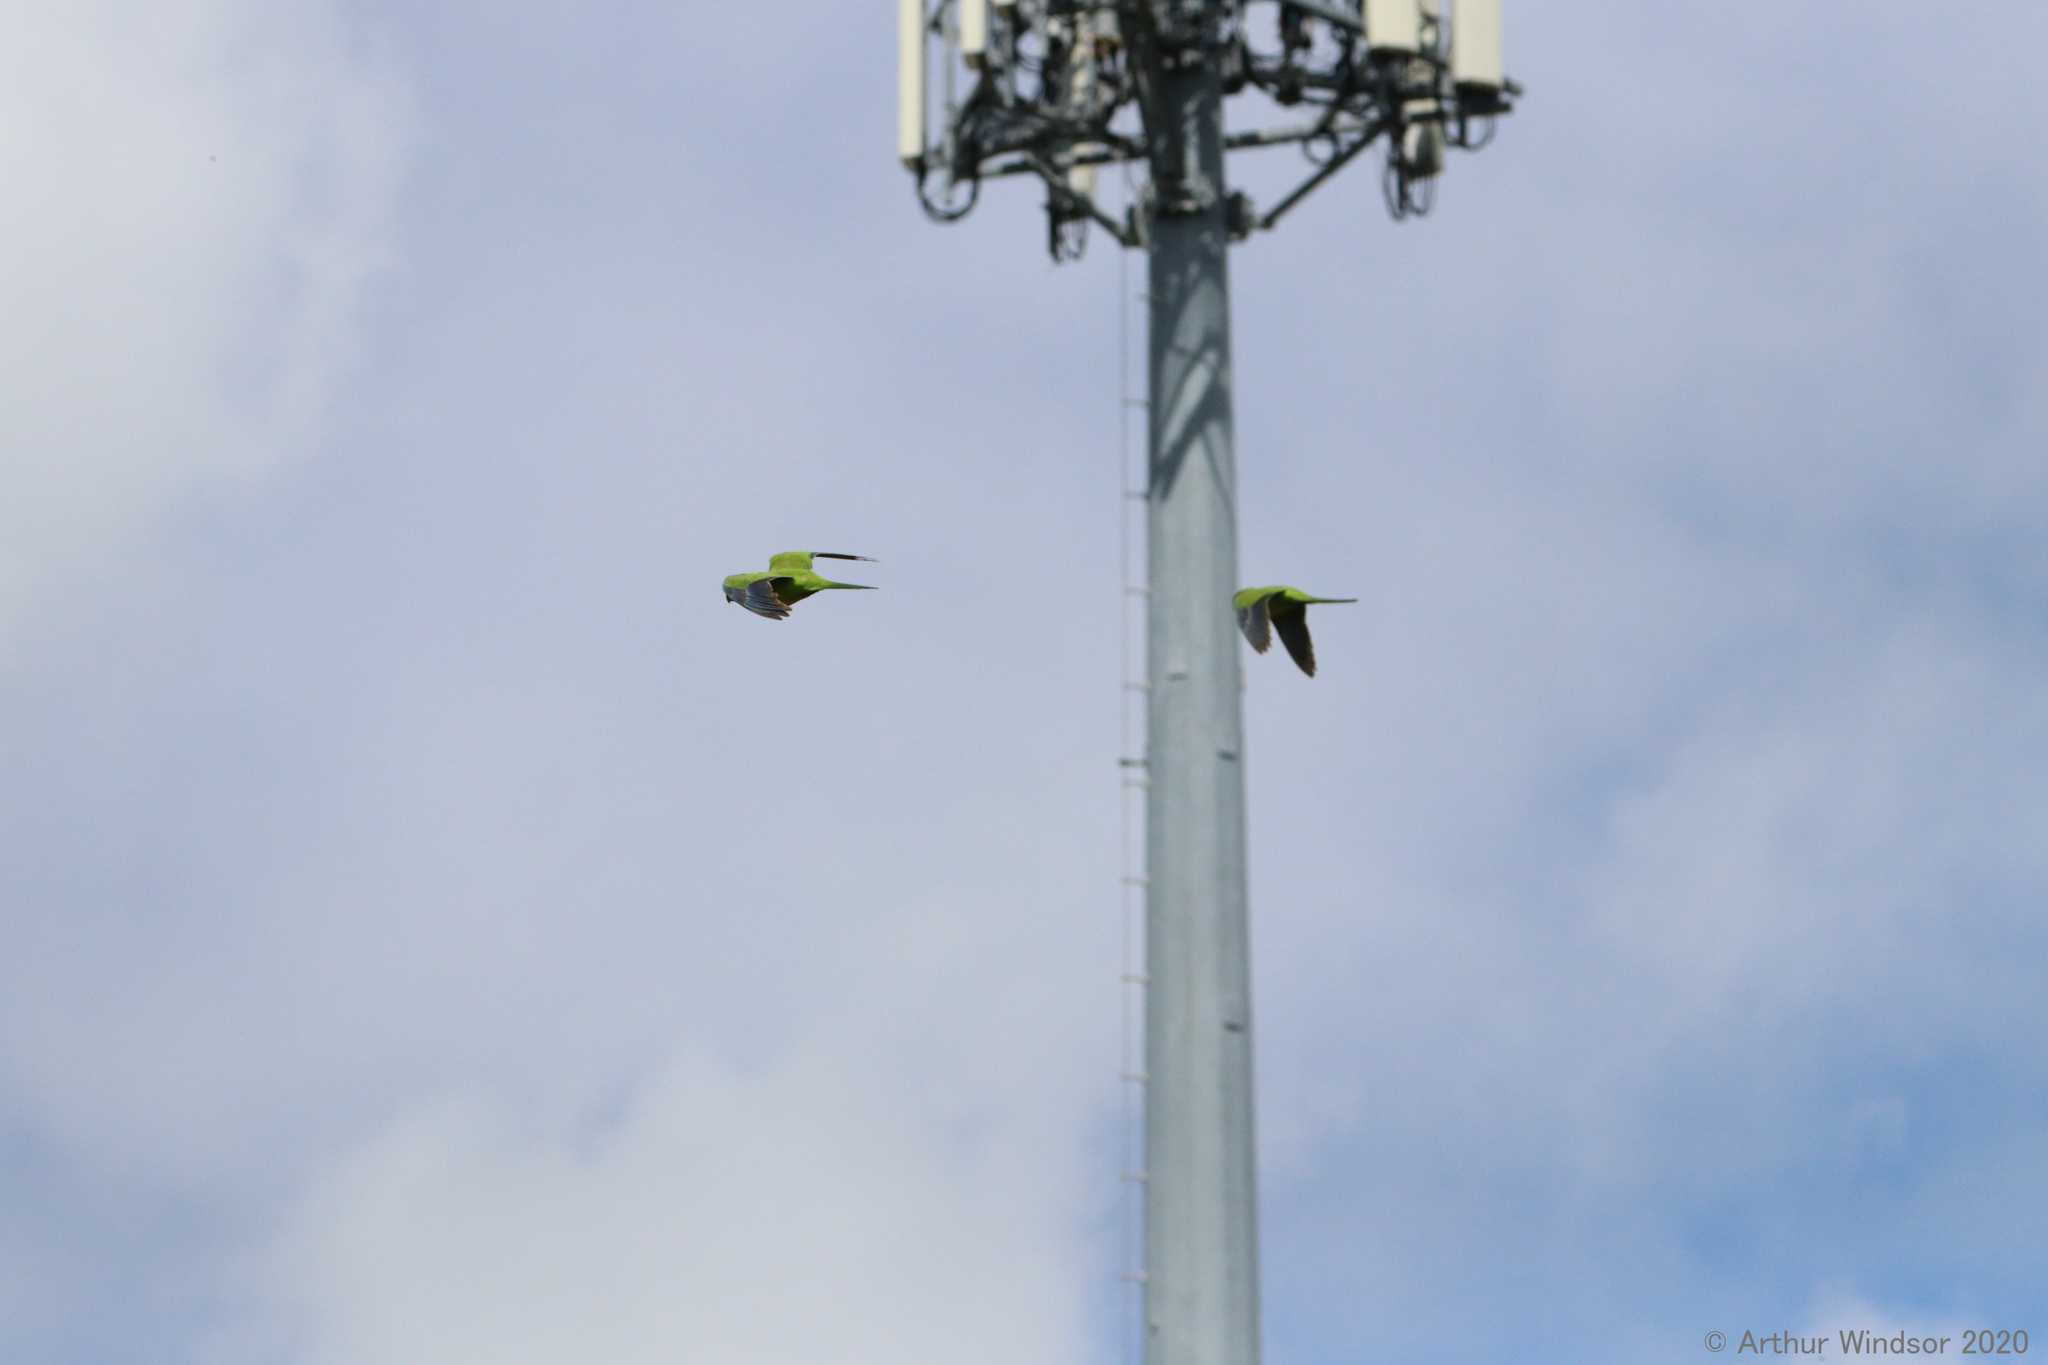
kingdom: Animalia
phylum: Chordata
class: Aves
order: Psittaciformes
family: Psittacidae
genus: Myiopsitta
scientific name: Myiopsitta monachus
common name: Monk parakeet
